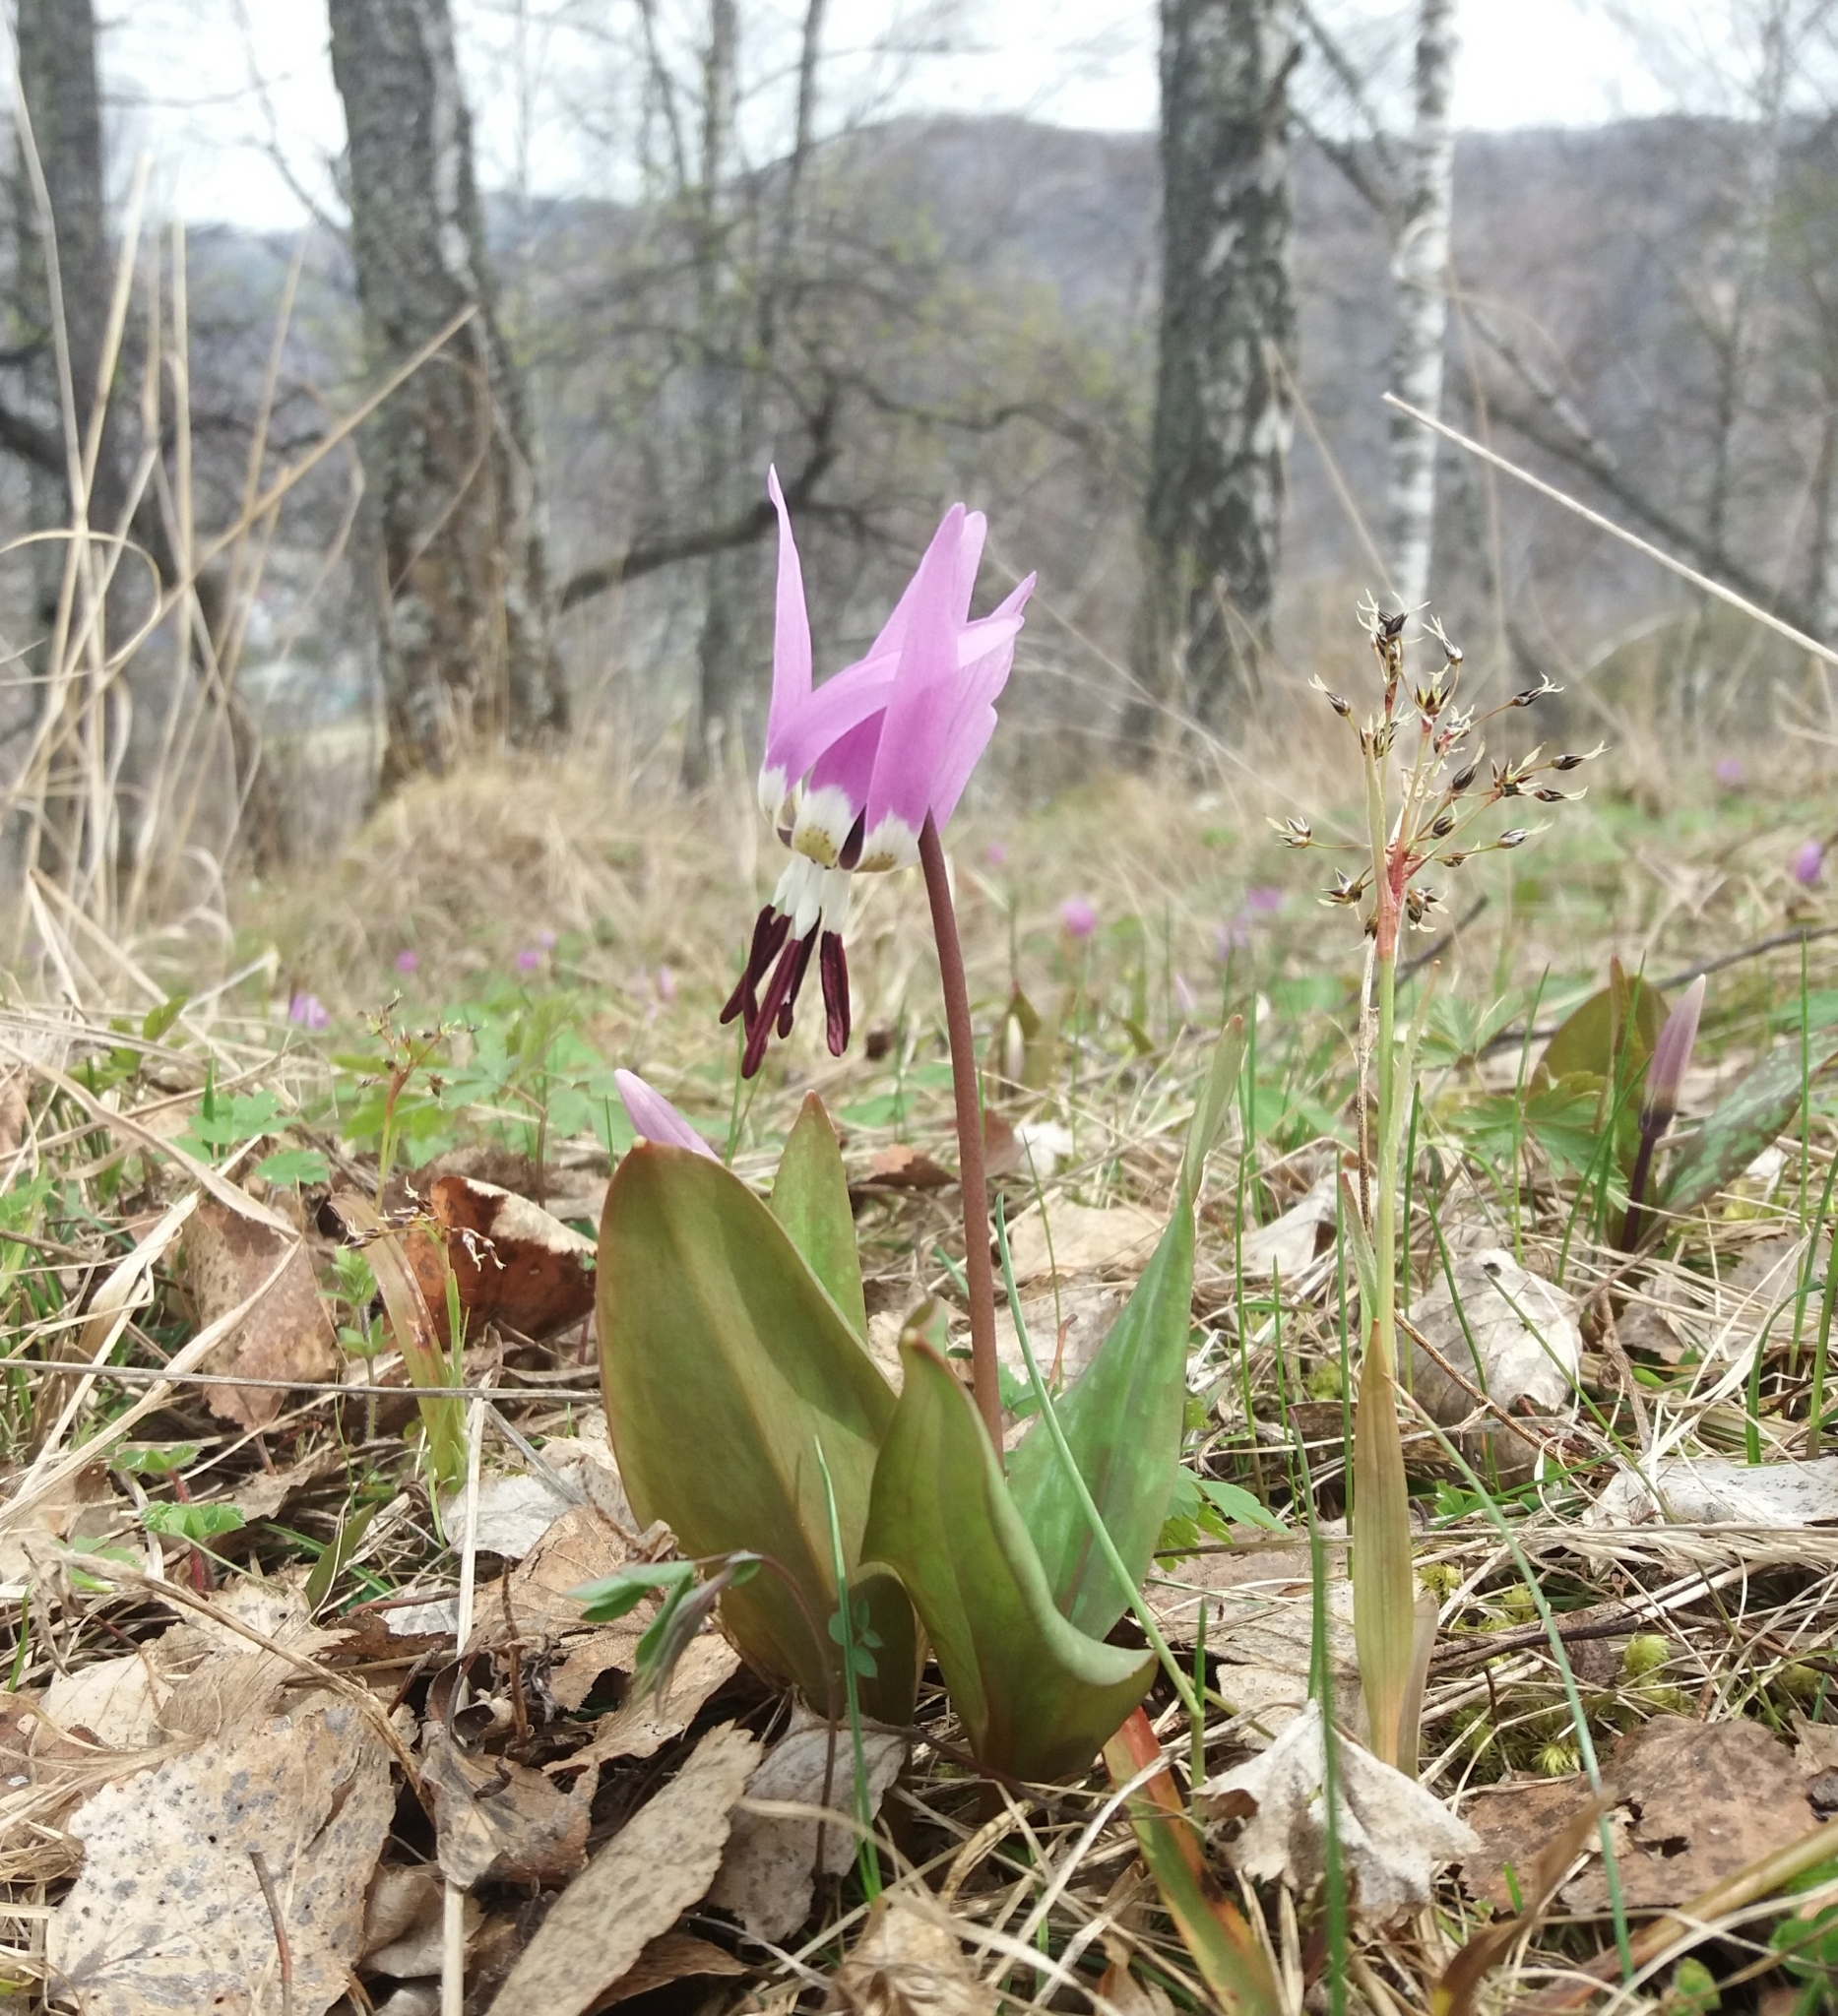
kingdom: Plantae
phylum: Tracheophyta
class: Liliopsida
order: Liliales
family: Liliaceae
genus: Erythronium
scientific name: Erythronium sulevii
